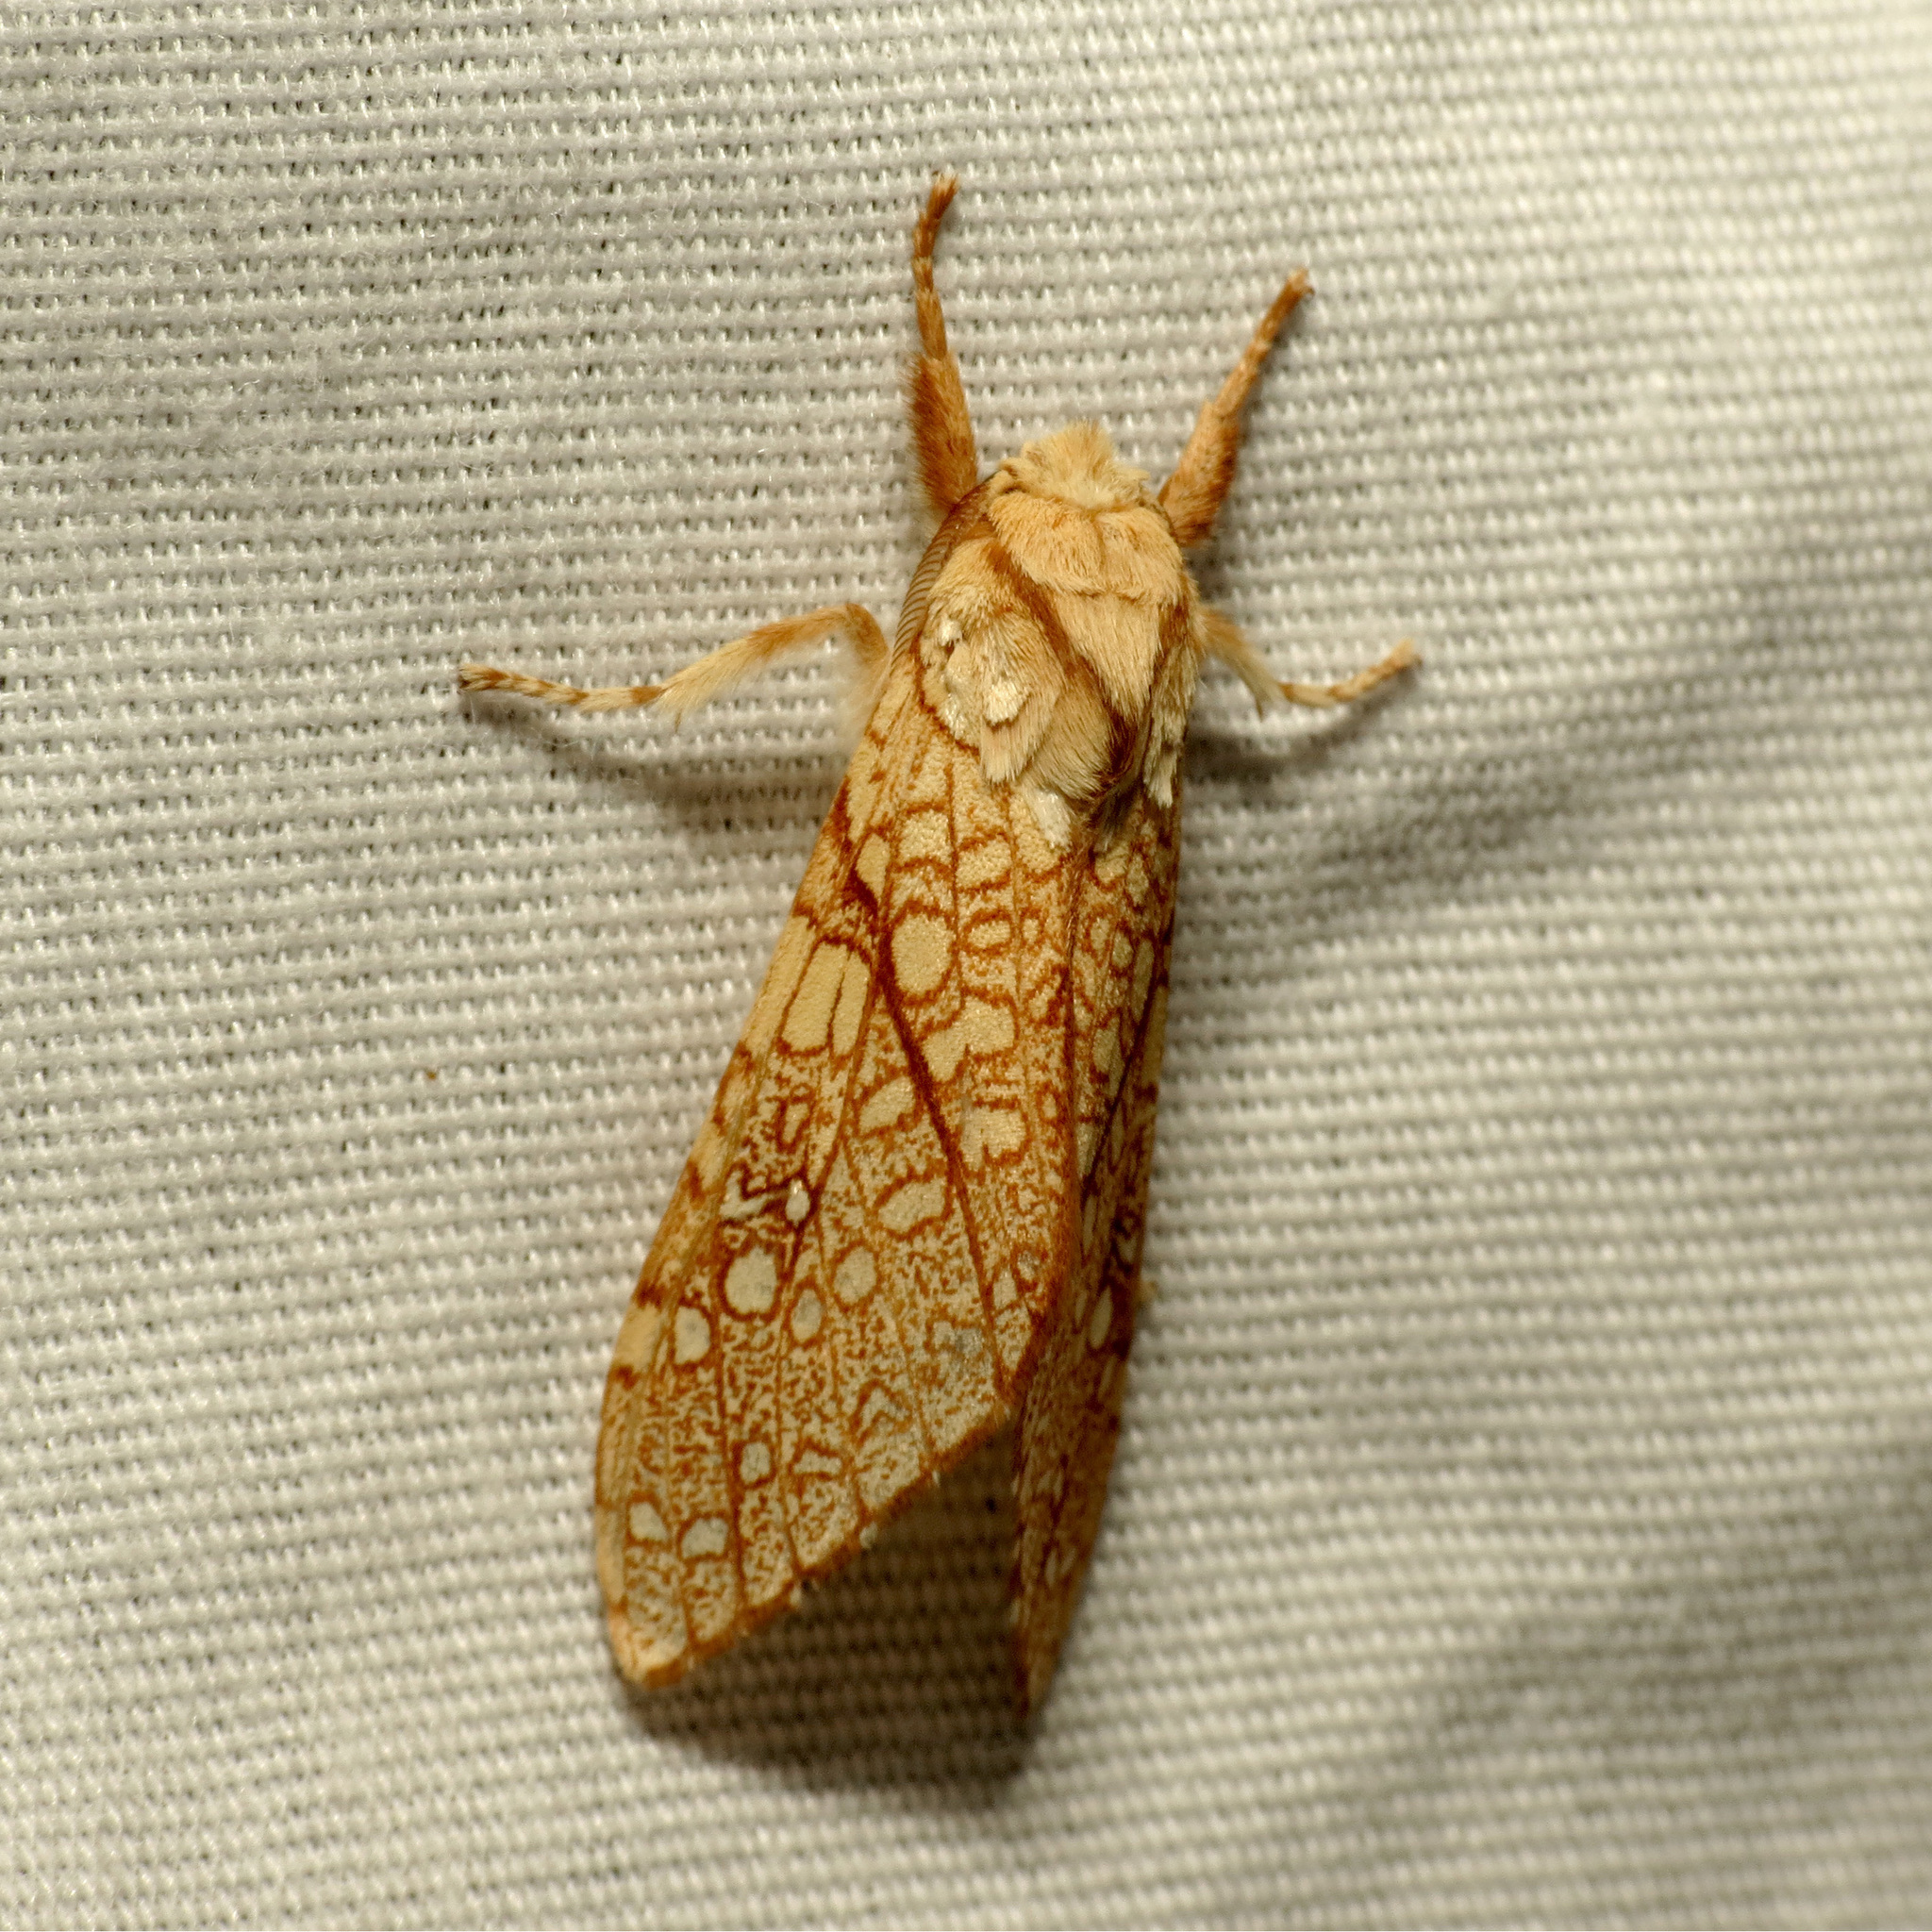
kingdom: Animalia
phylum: Arthropoda
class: Insecta
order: Lepidoptera
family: Erebidae
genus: Lophocampa
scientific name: Lophocampa mixta
